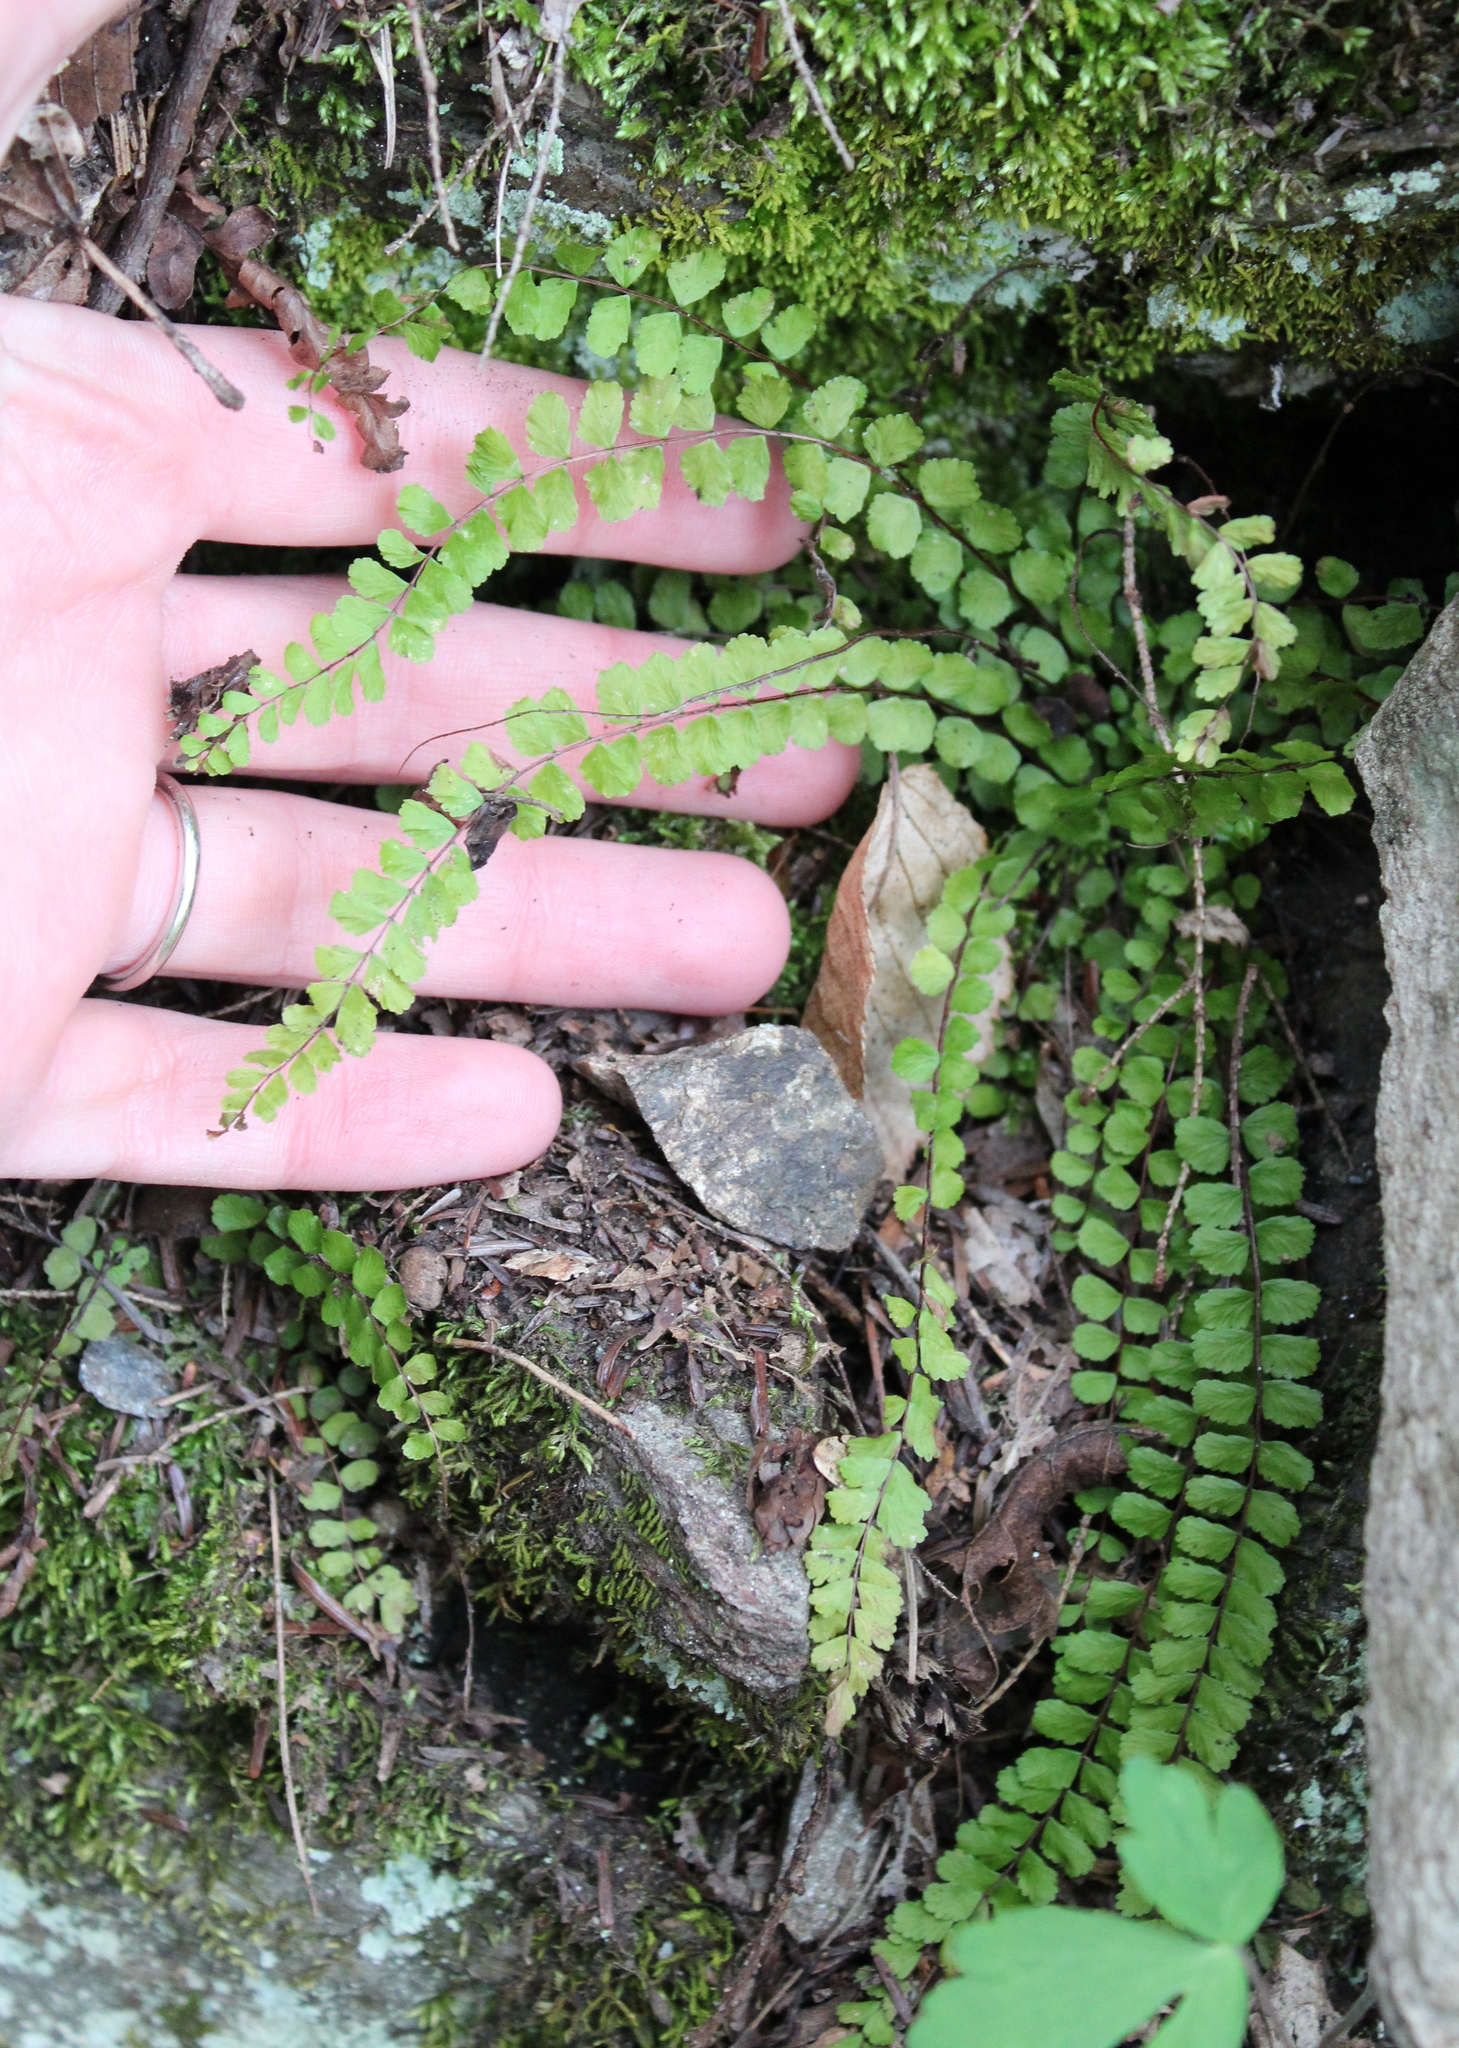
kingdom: Plantae
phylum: Tracheophyta
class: Polypodiopsida
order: Polypodiales
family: Aspleniaceae
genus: Asplenium
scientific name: Asplenium trichomanes
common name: Maidenhair spleenwort
